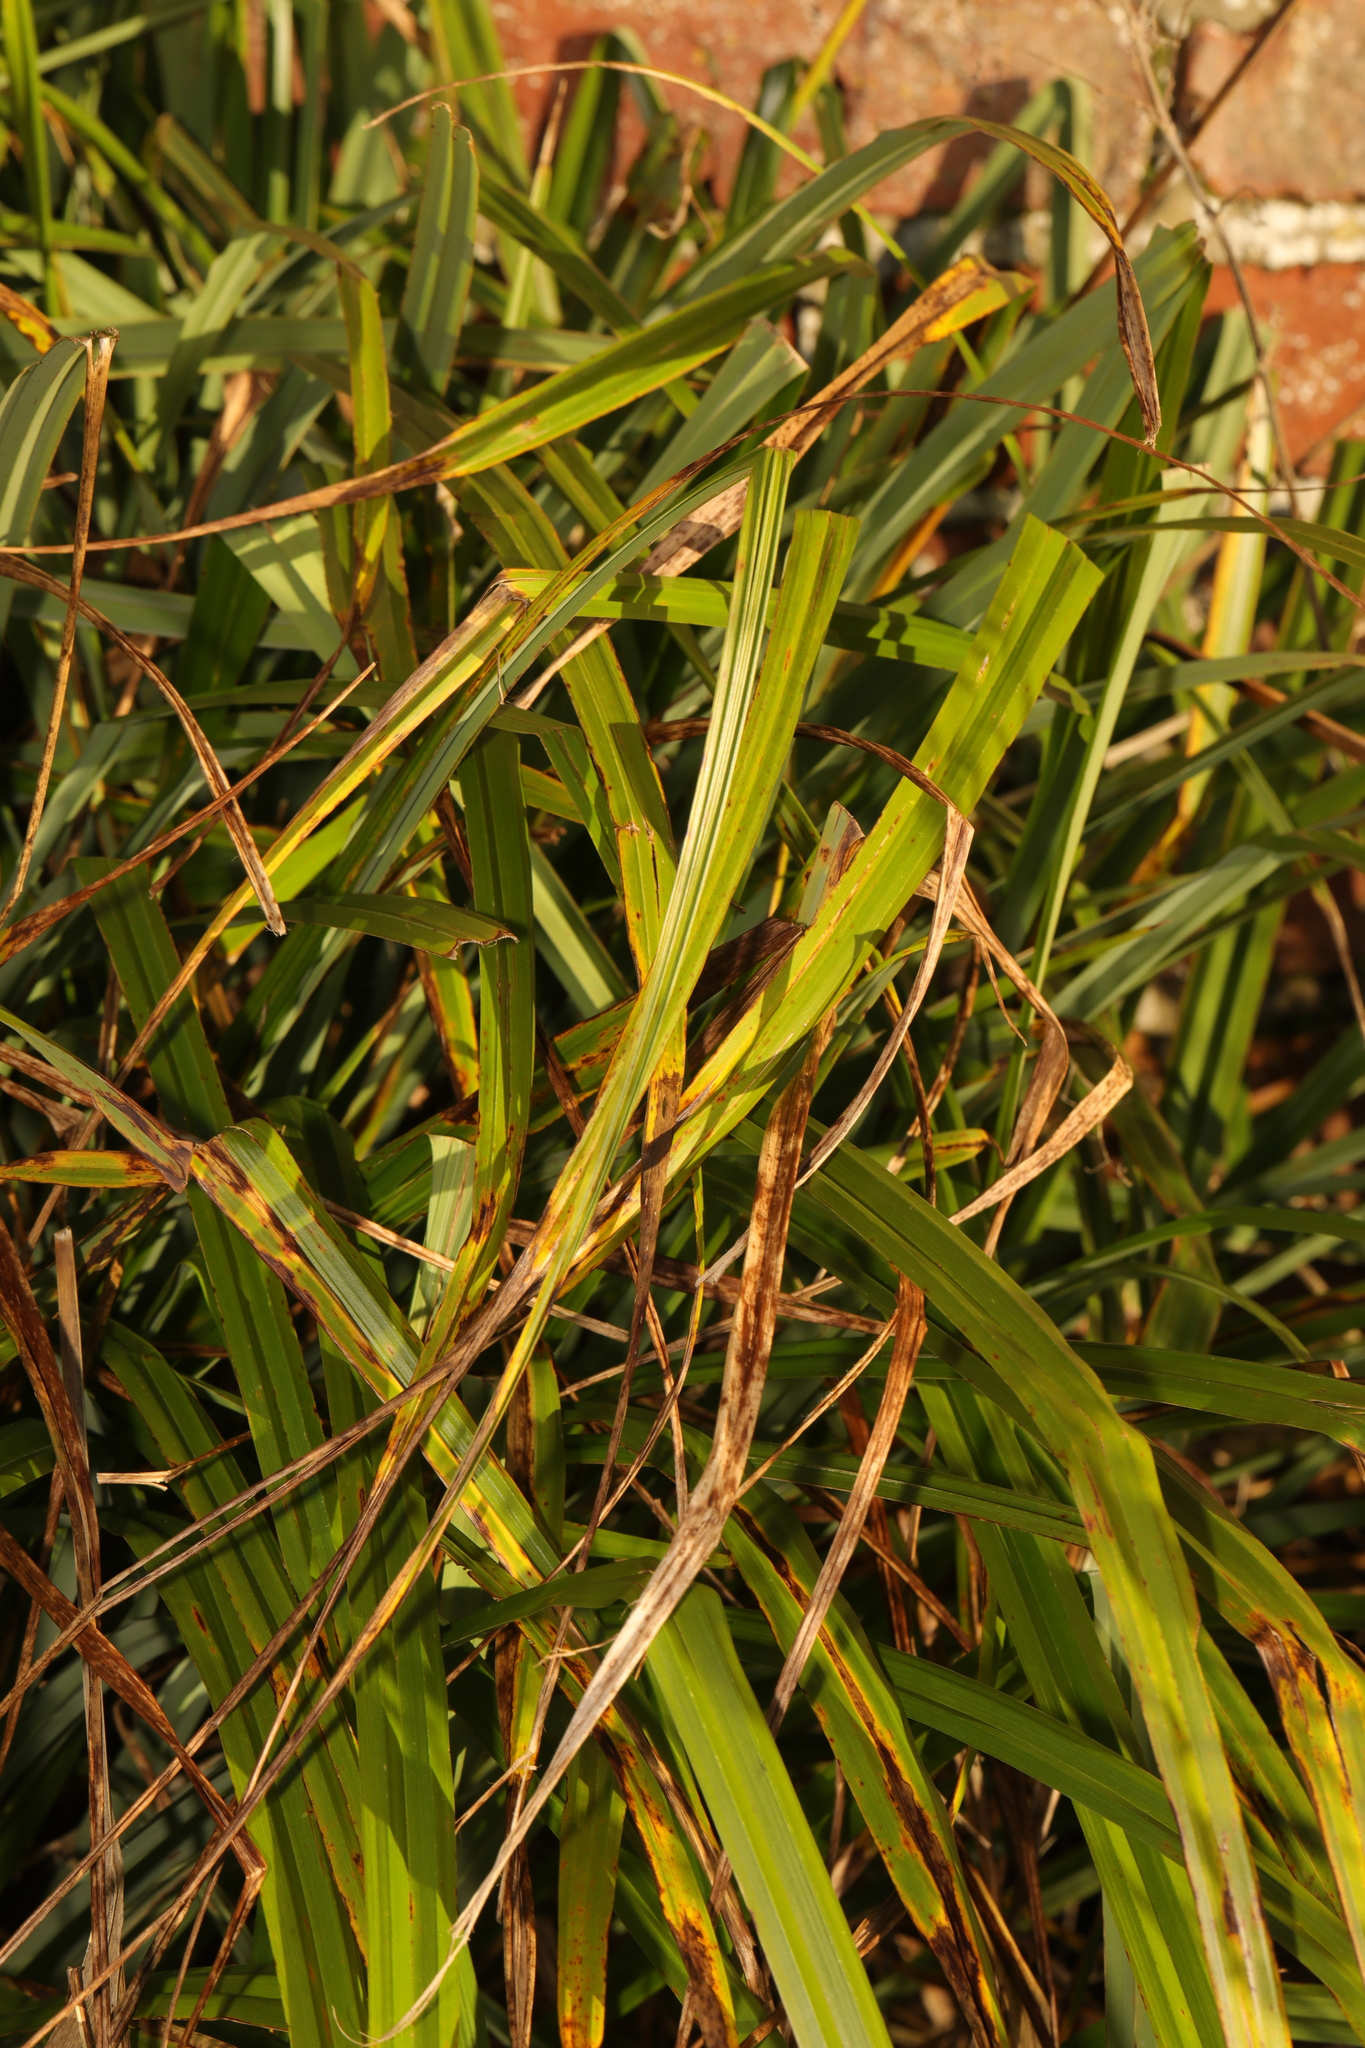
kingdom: Plantae
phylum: Tracheophyta
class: Liliopsida
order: Poales
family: Cyperaceae
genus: Carex
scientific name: Carex pendula
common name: Pendulous sedge
